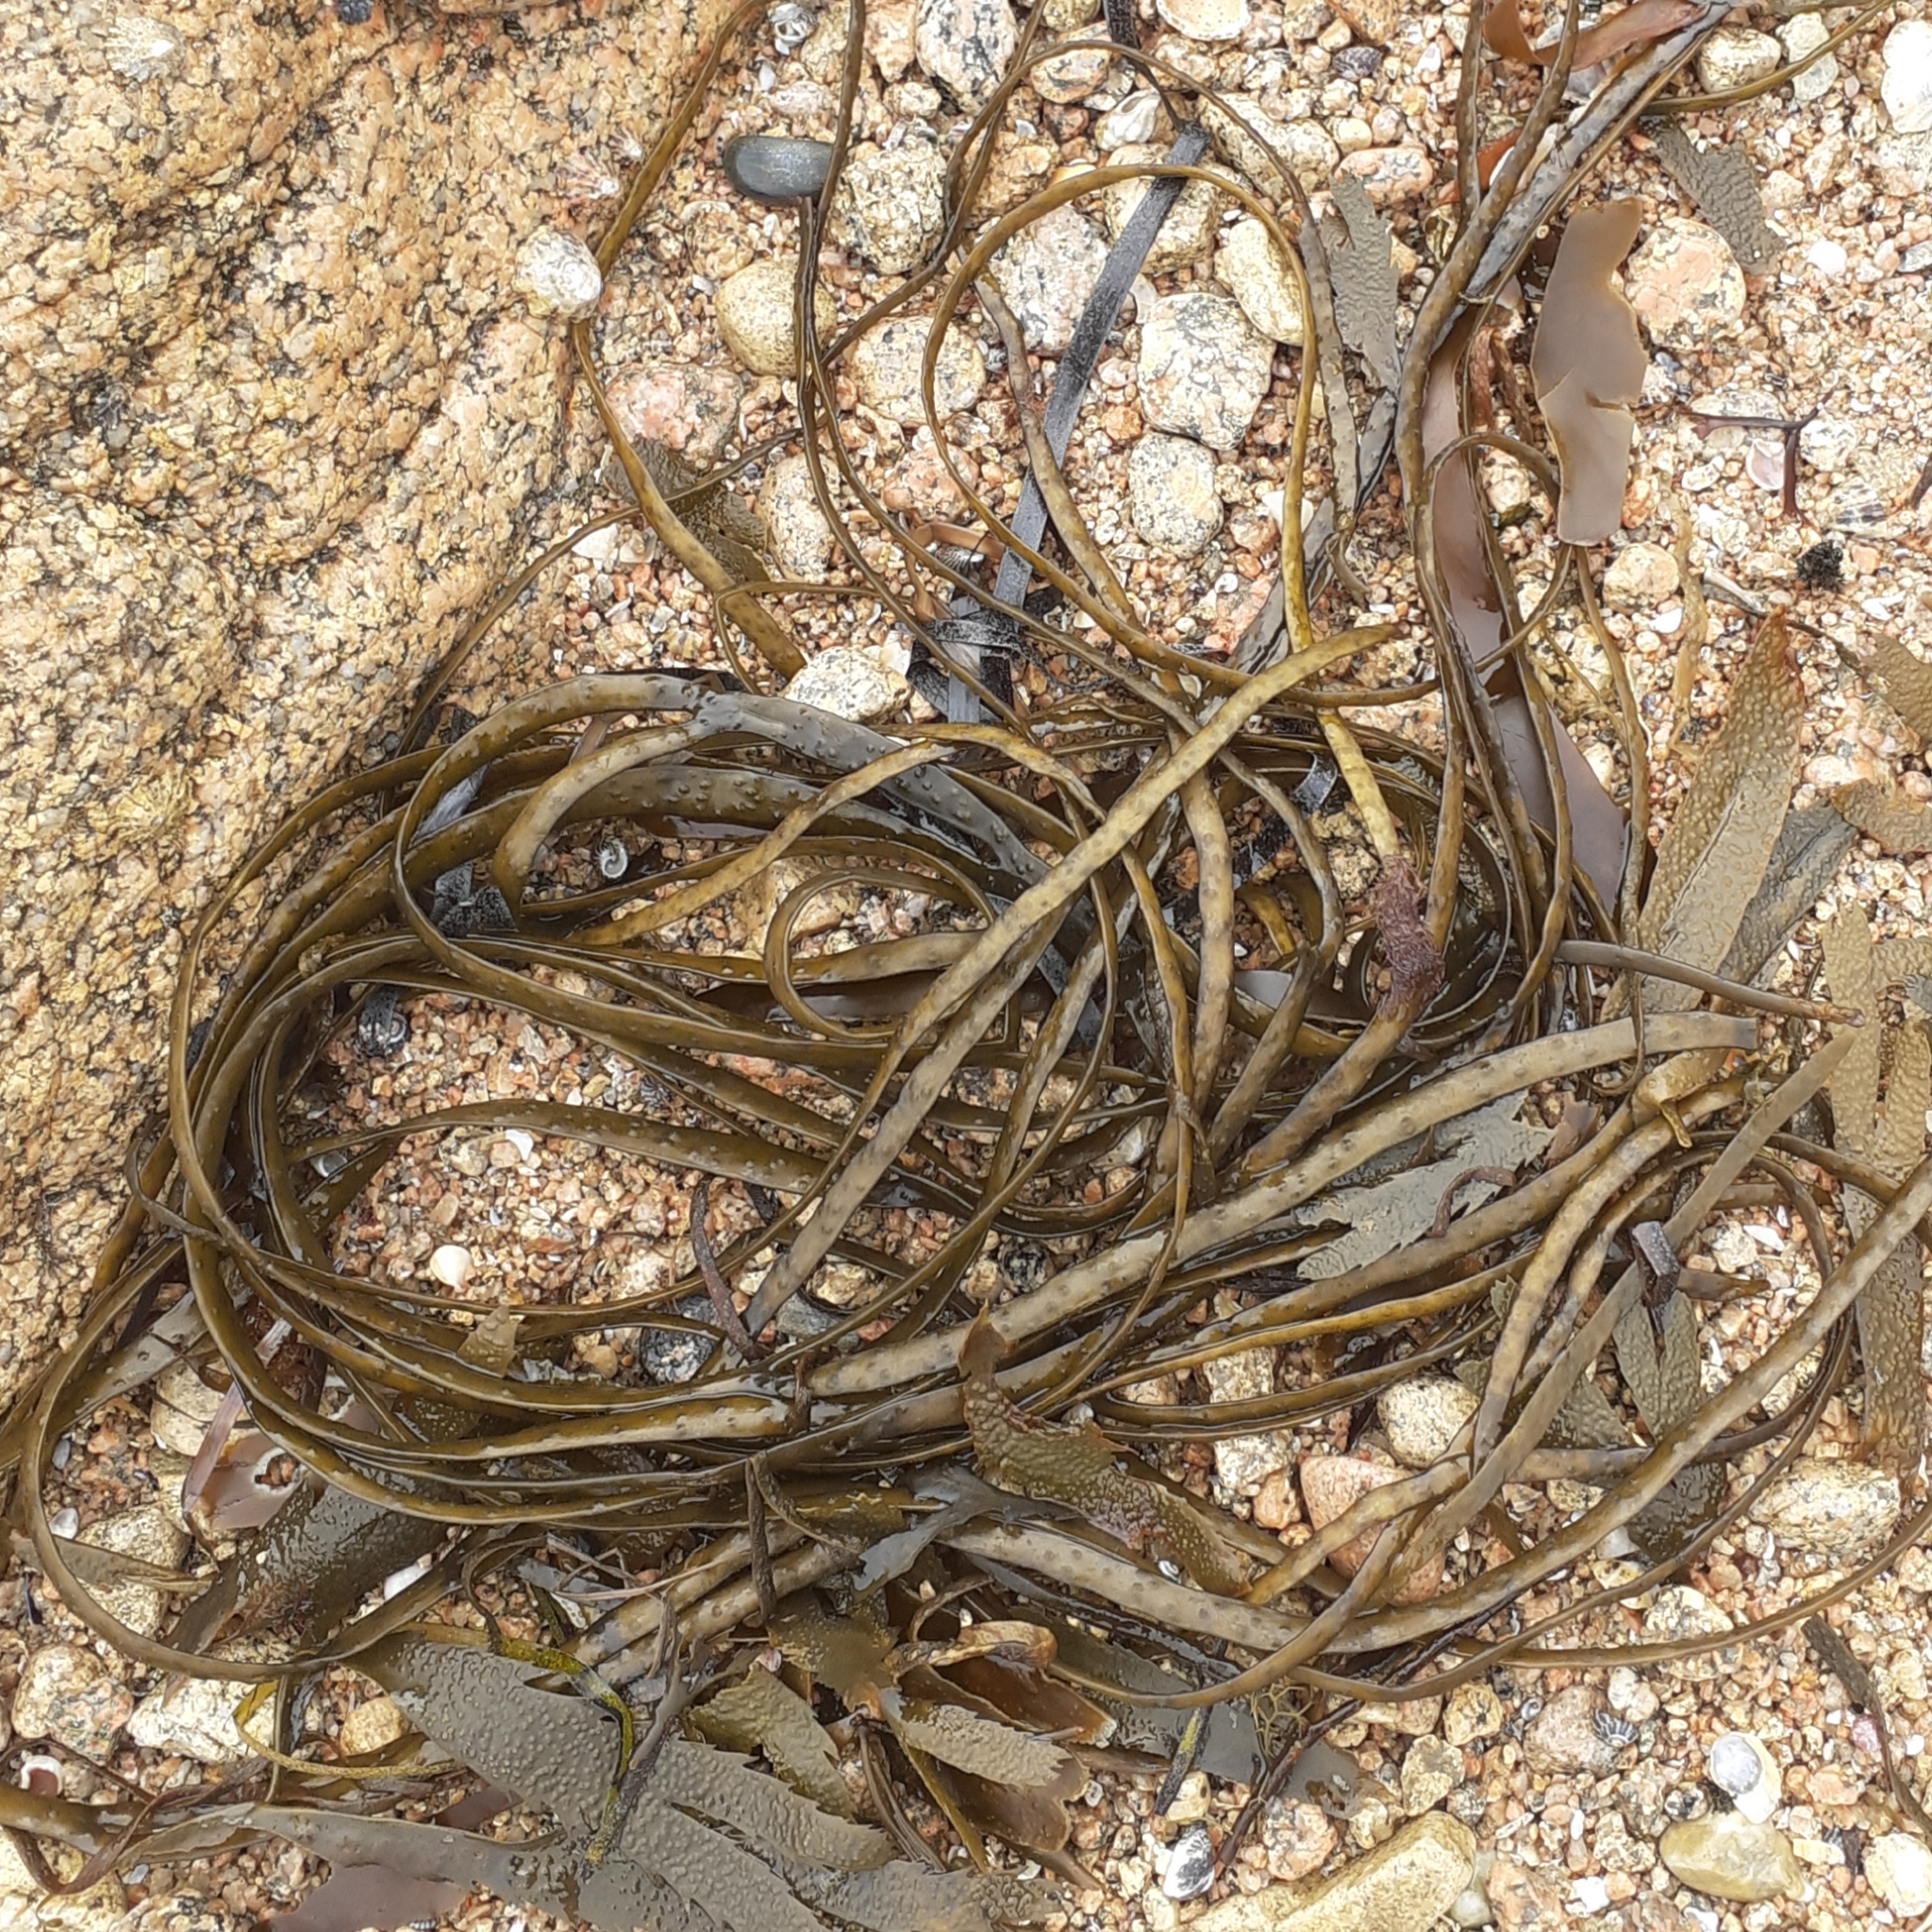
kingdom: Chromista
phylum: Ochrophyta
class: Phaeophyceae
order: Fucales
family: Himanthaliaceae
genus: Himanthalia
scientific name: Himanthalia elongata
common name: Sea-thong
